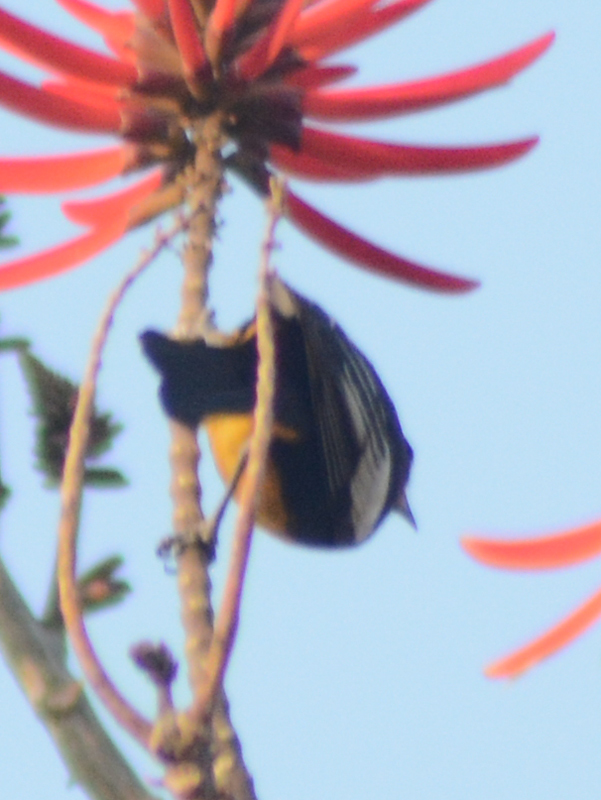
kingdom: Animalia
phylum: Chordata
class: Aves
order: Passeriformes
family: Icteridae
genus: Icterus
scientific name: Icterus abeillei
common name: Black-backed oriole
